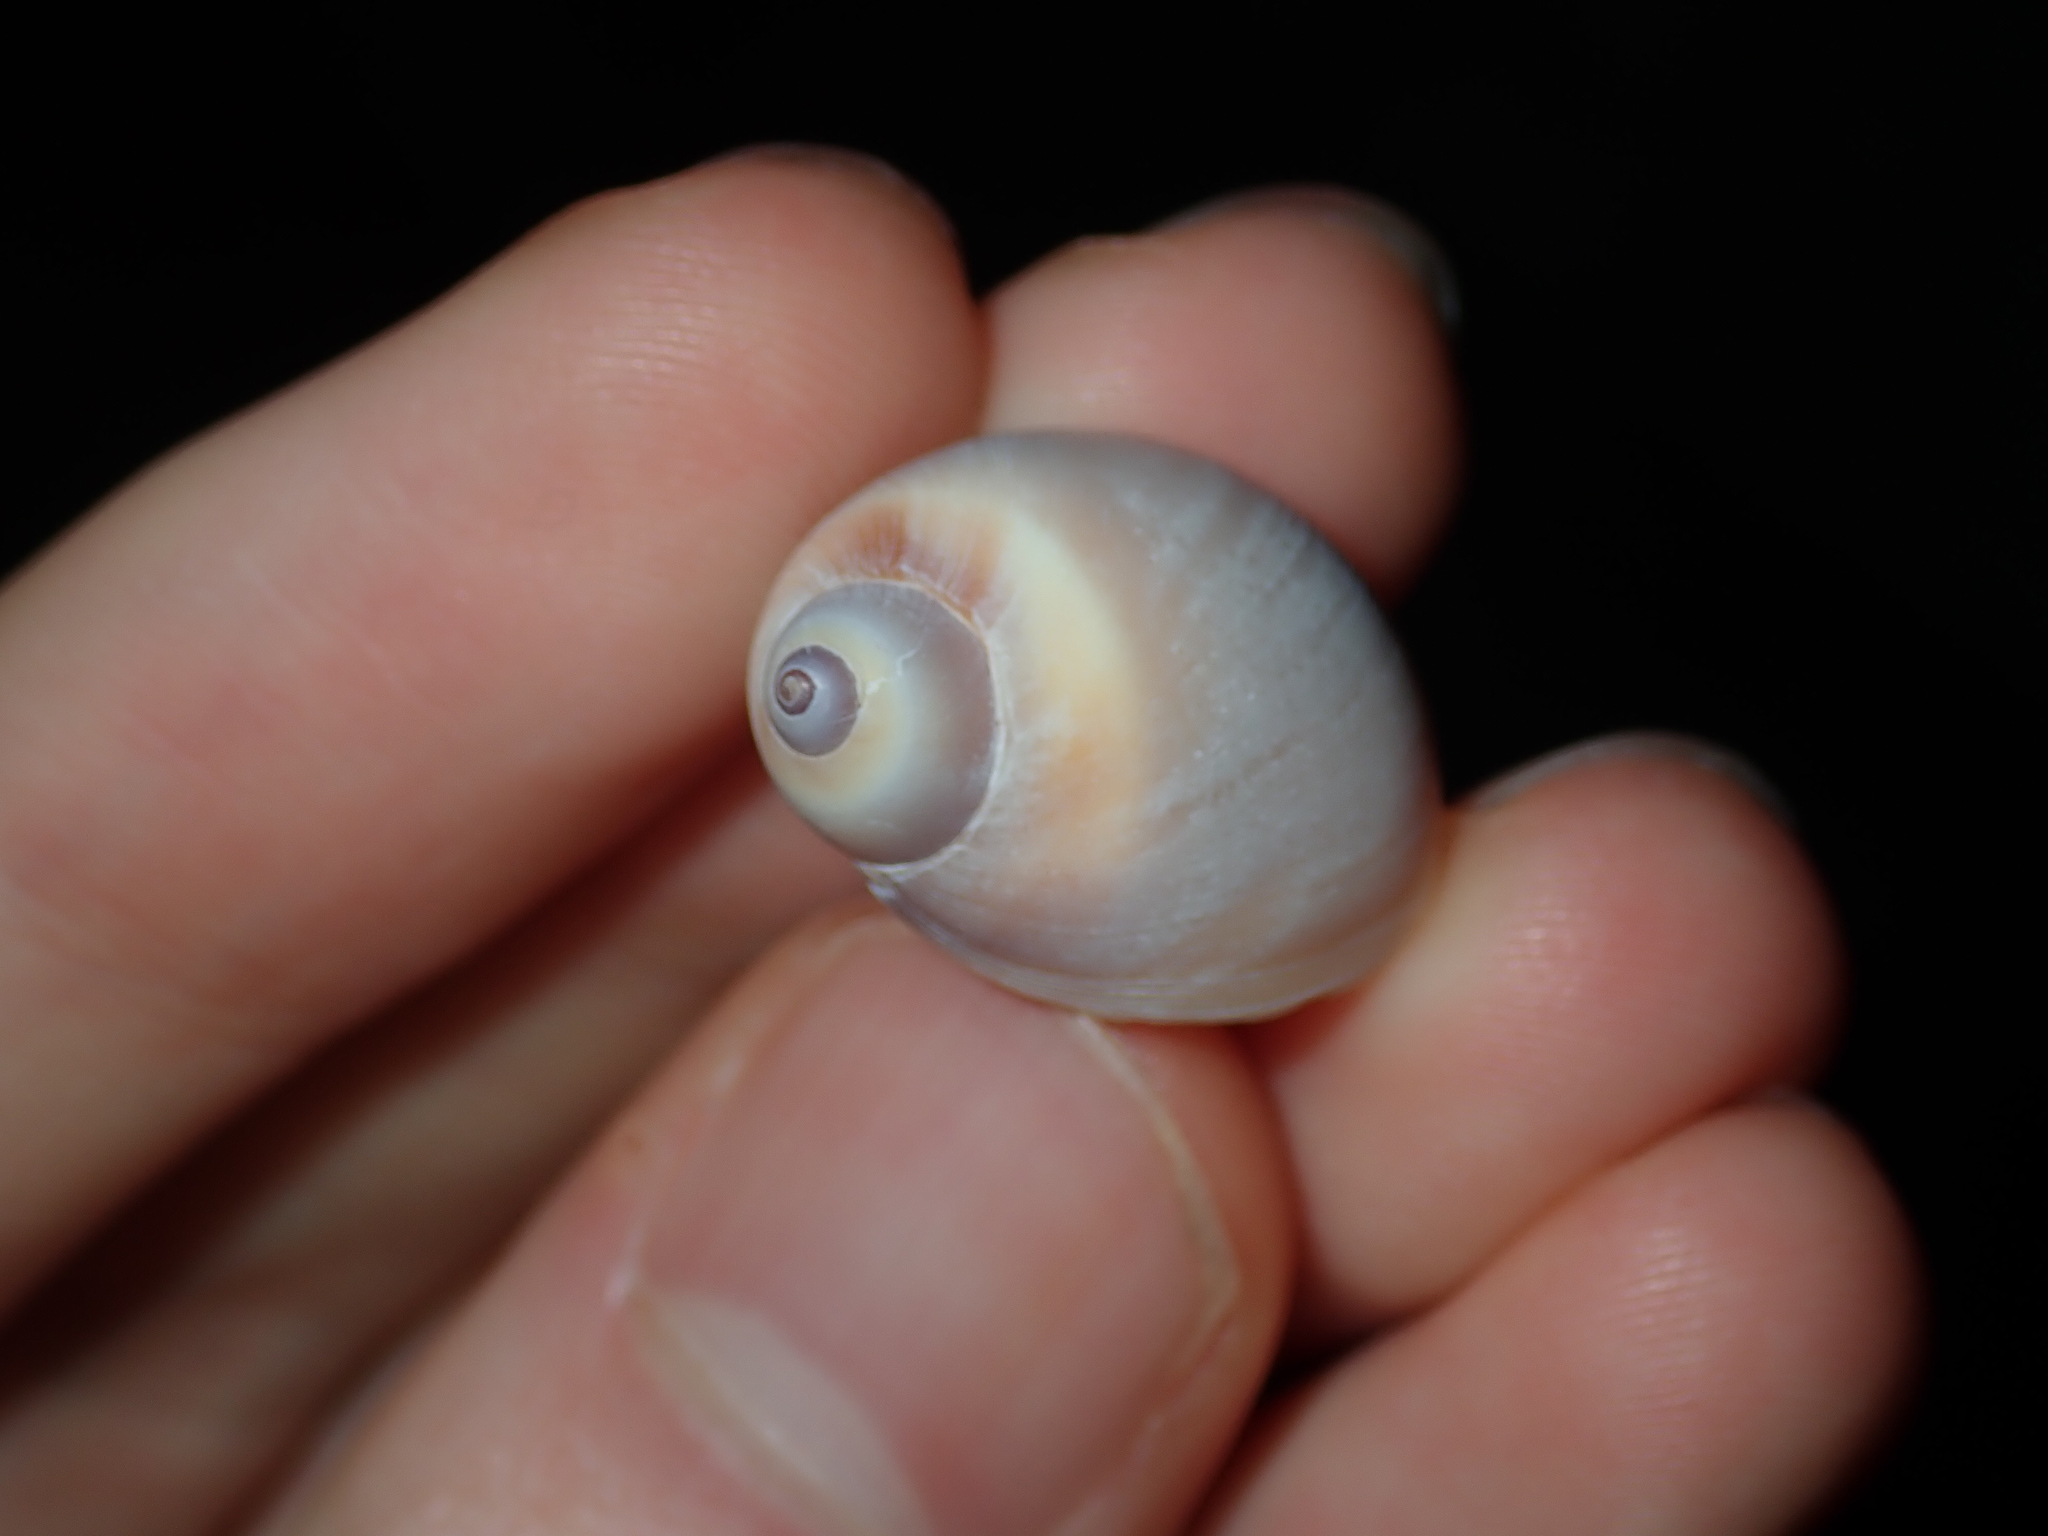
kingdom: Animalia
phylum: Mollusca
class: Gastropoda
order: Littorinimorpha
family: Naticidae
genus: Conuber
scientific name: Conuber conicum
